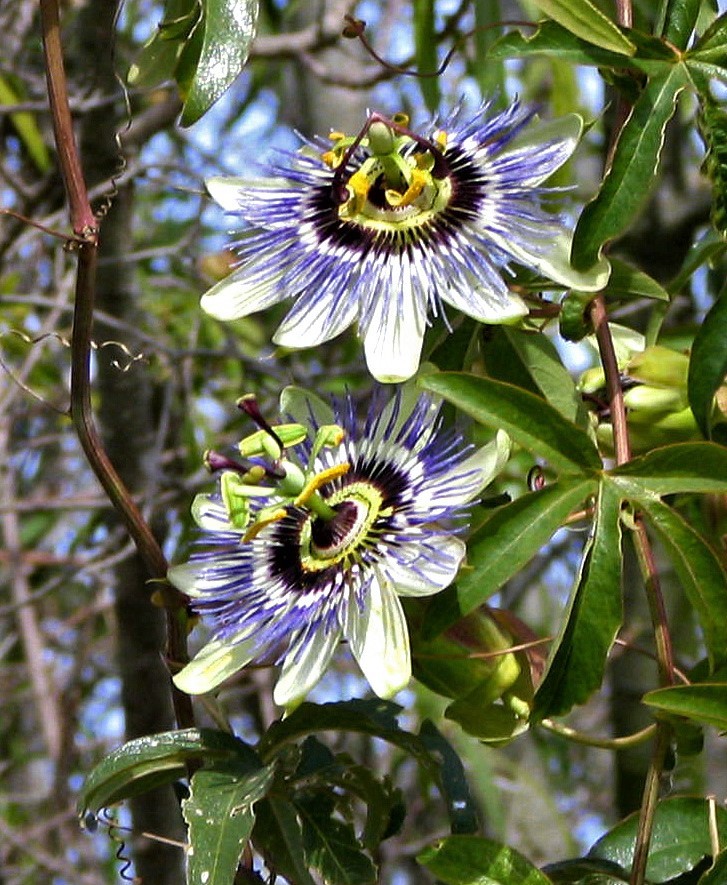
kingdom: Plantae
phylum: Tracheophyta
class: Magnoliopsida
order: Malpighiales
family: Passifloraceae
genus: Passiflora
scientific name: Passiflora caerulea
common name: Blue passionflower
